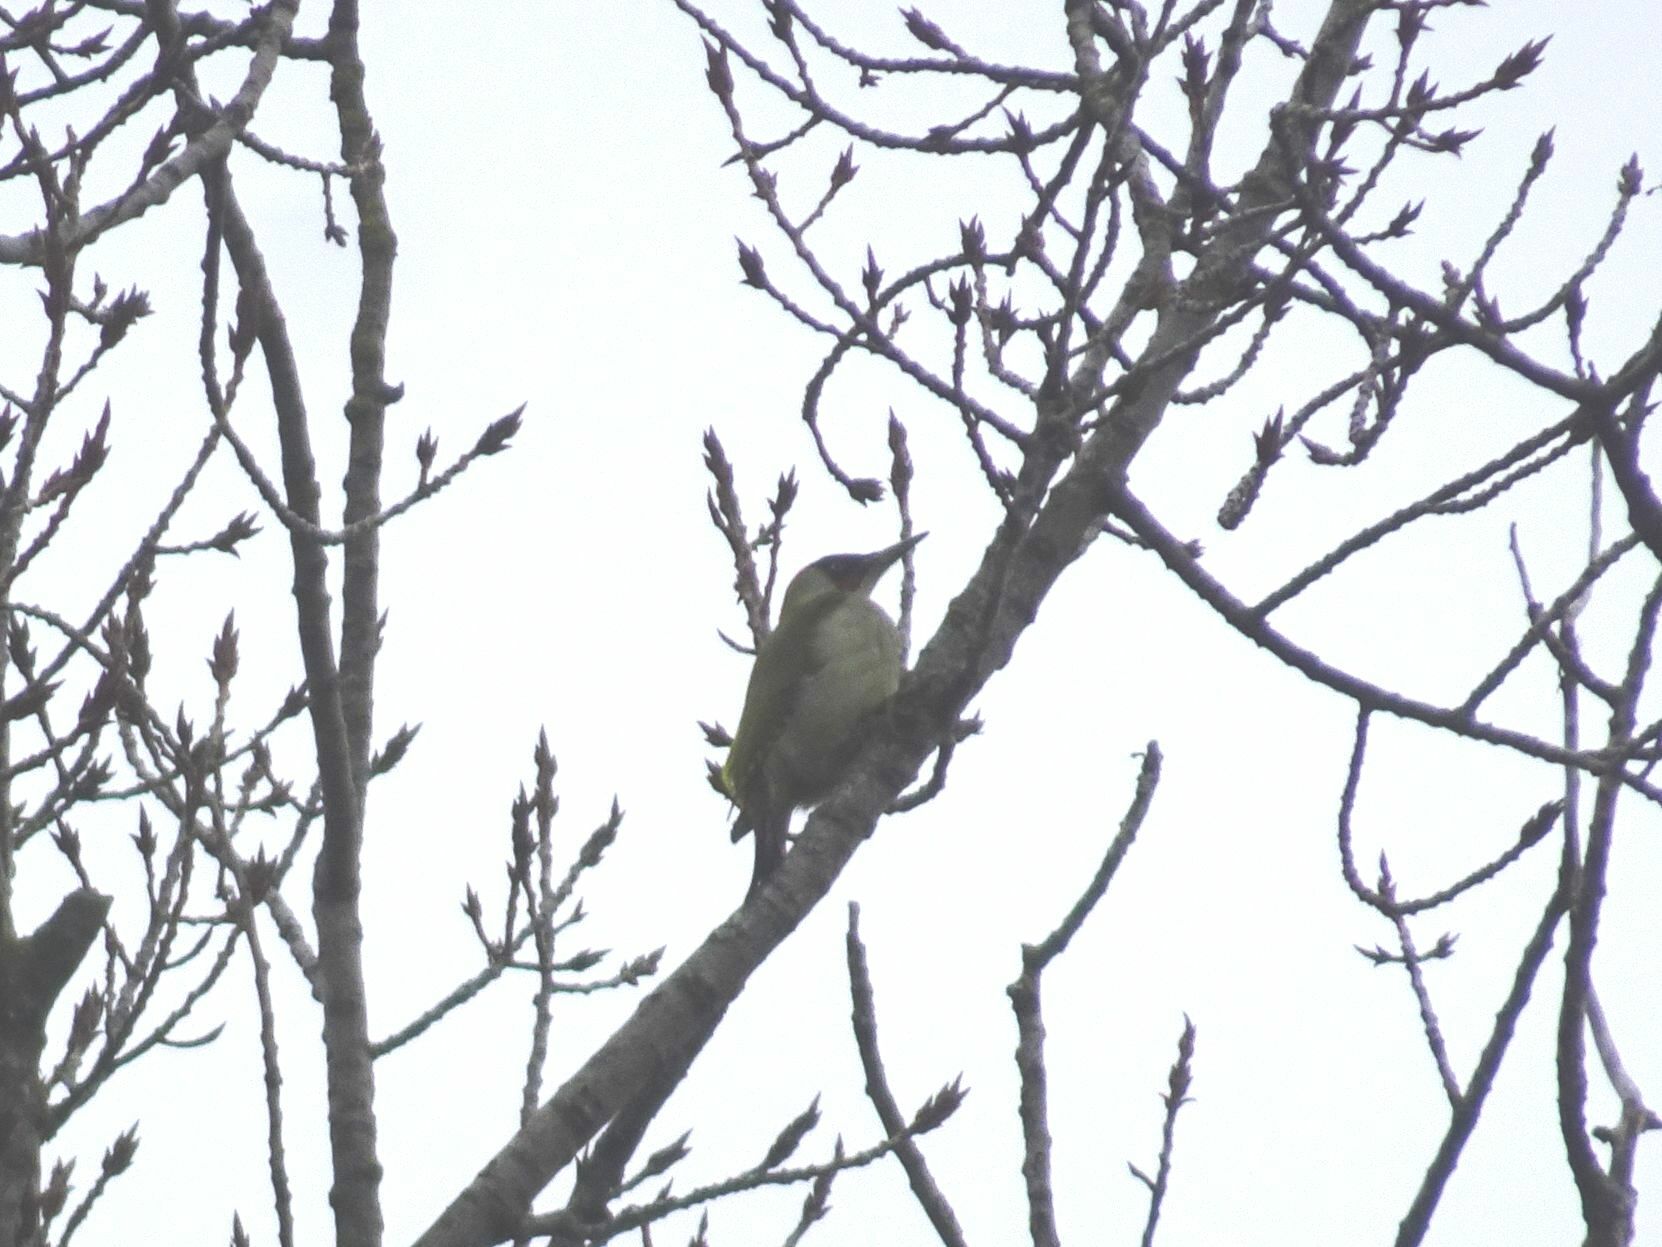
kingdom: Animalia
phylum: Chordata
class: Aves
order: Piciformes
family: Picidae
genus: Picus
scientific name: Picus viridis
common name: European green woodpecker
